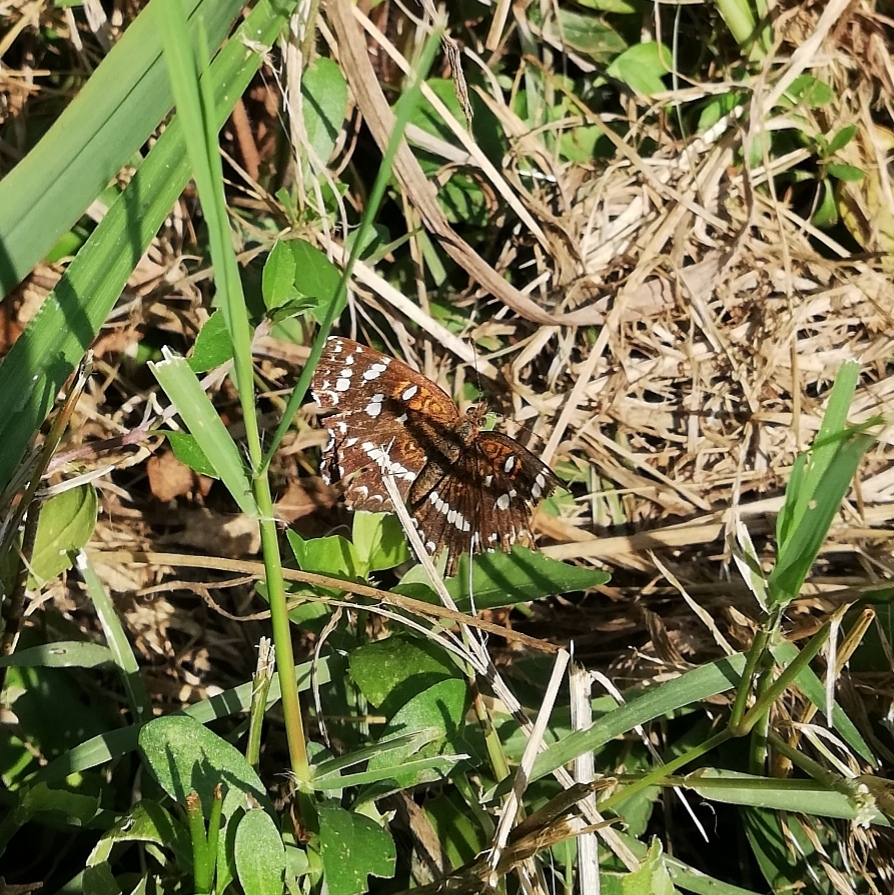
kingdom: Animalia
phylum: Arthropoda
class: Insecta
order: Lepidoptera
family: Nymphalidae
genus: Ortilia
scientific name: Ortilia ithra
